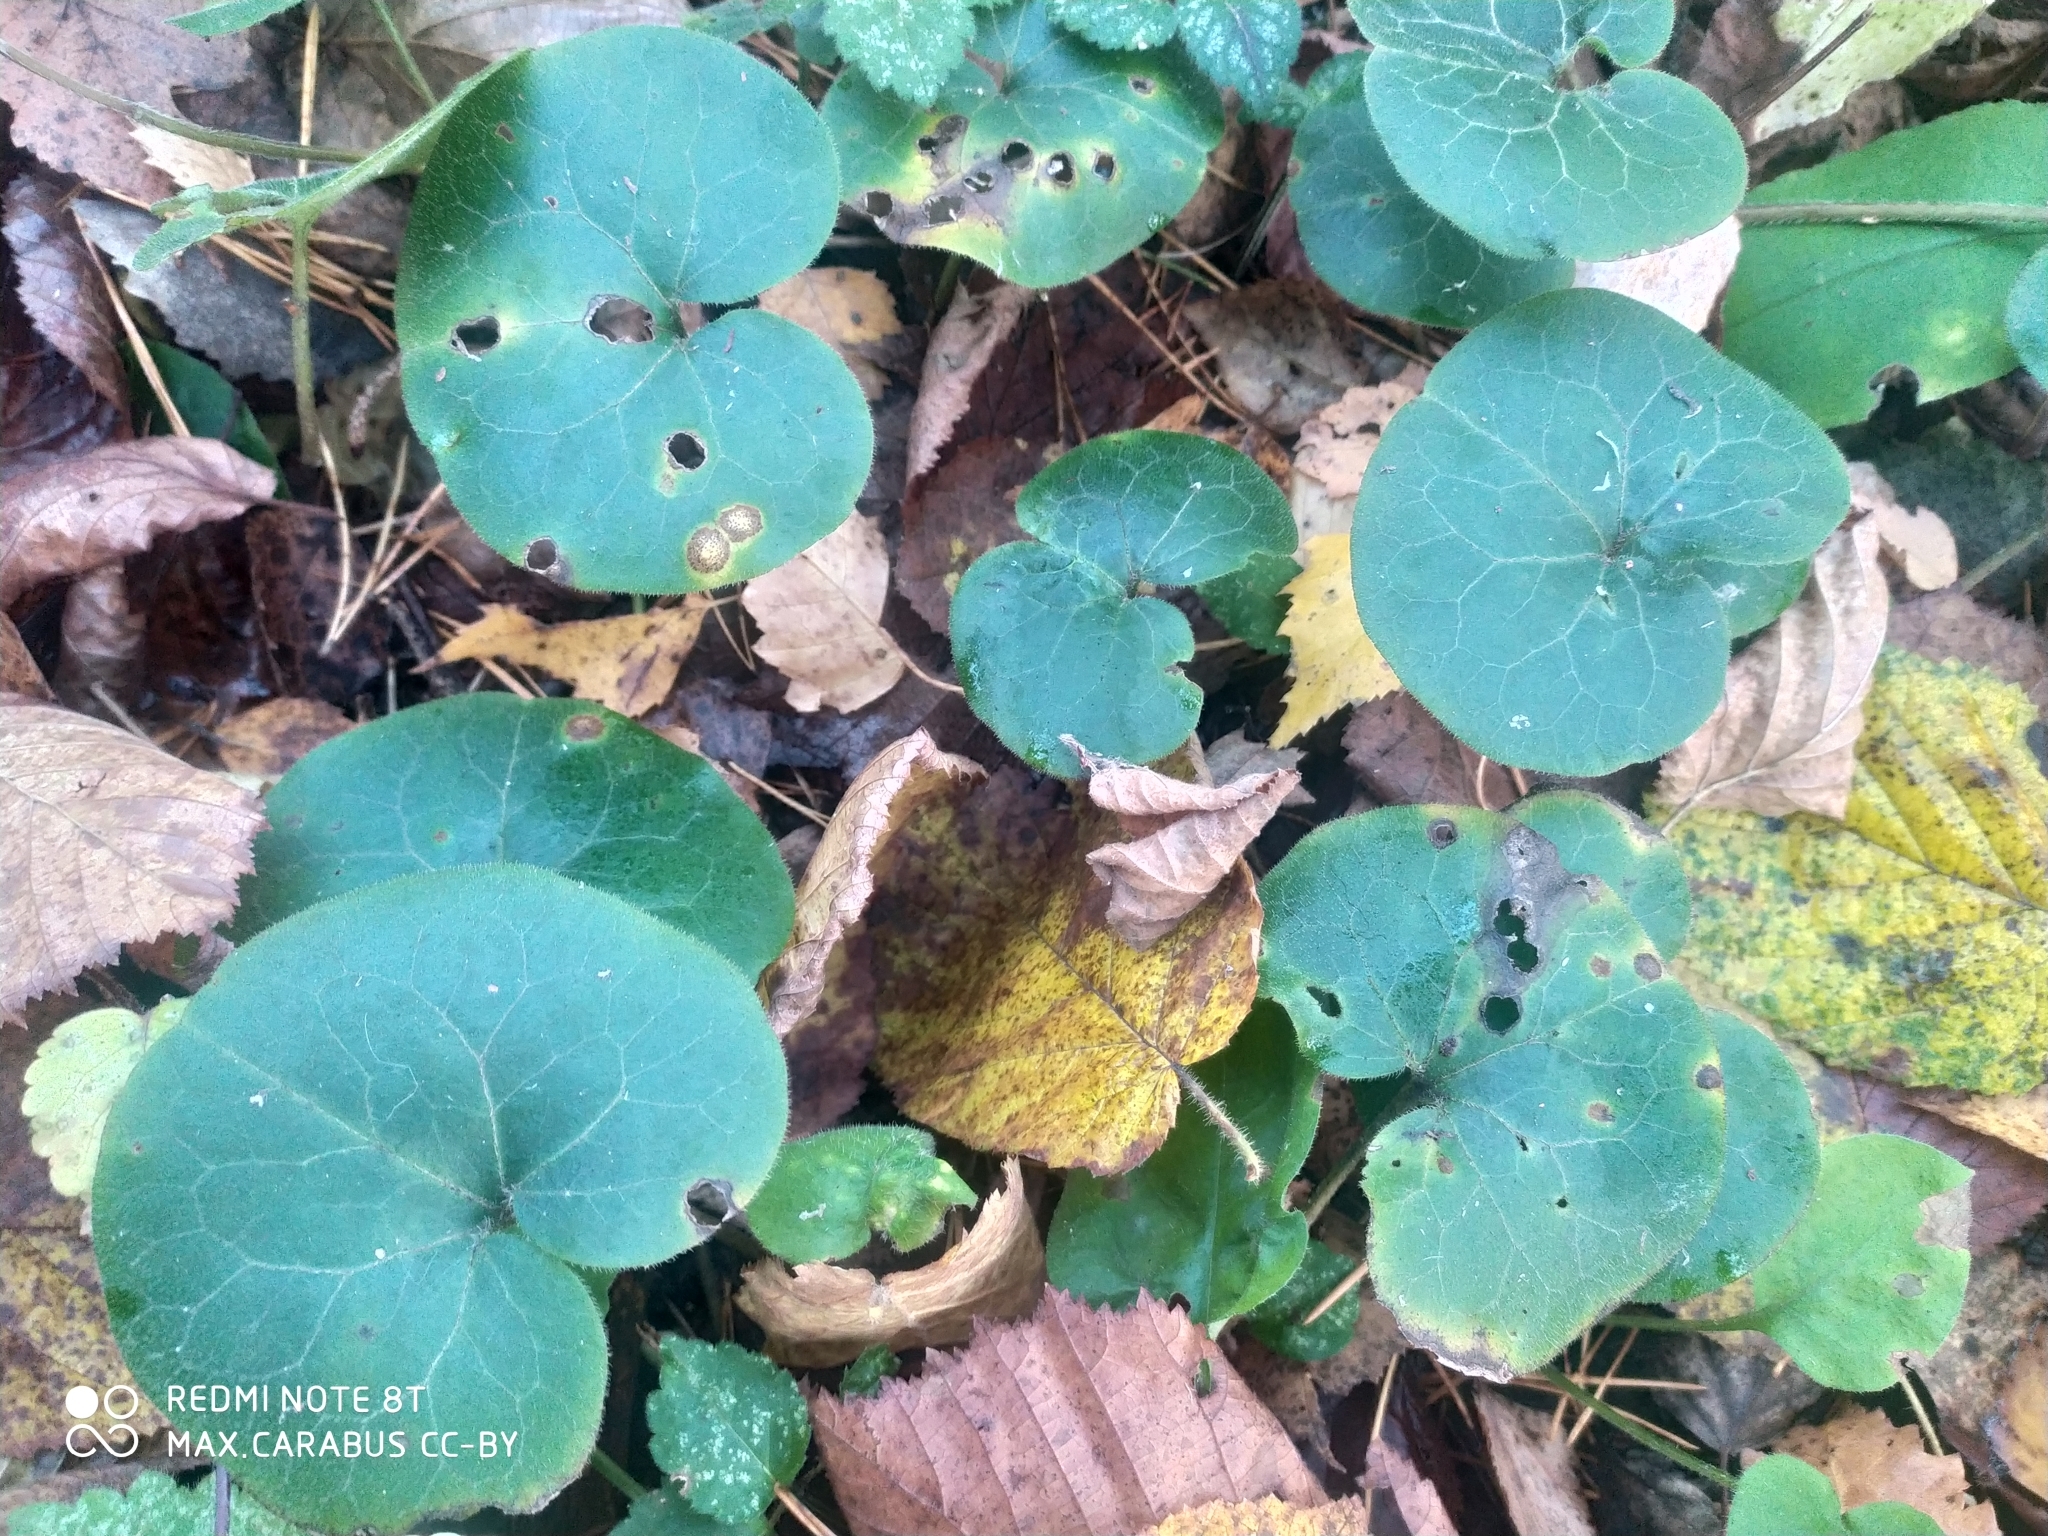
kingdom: Plantae
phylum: Tracheophyta
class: Magnoliopsida
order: Piperales
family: Aristolochiaceae
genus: Asarum
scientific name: Asarum europaeum
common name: Asarabacca
